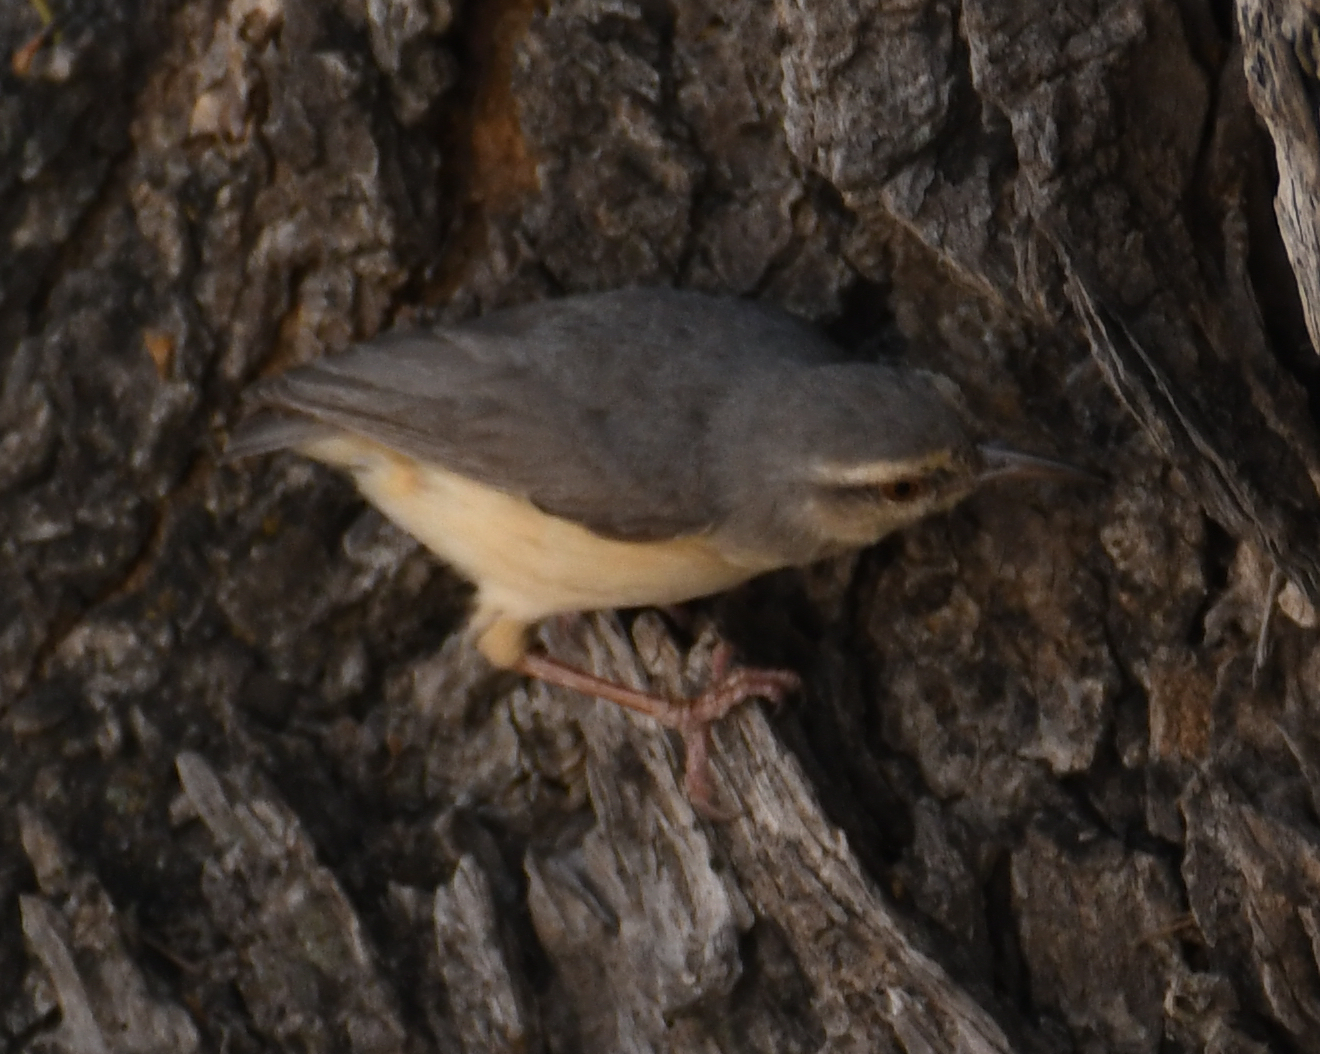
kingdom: Animalia
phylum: Chordata
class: Aves
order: Passeriformes
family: Macrosphenidae
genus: Sylvietta
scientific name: Sylvietta rufescens
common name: Long-billed crombec
